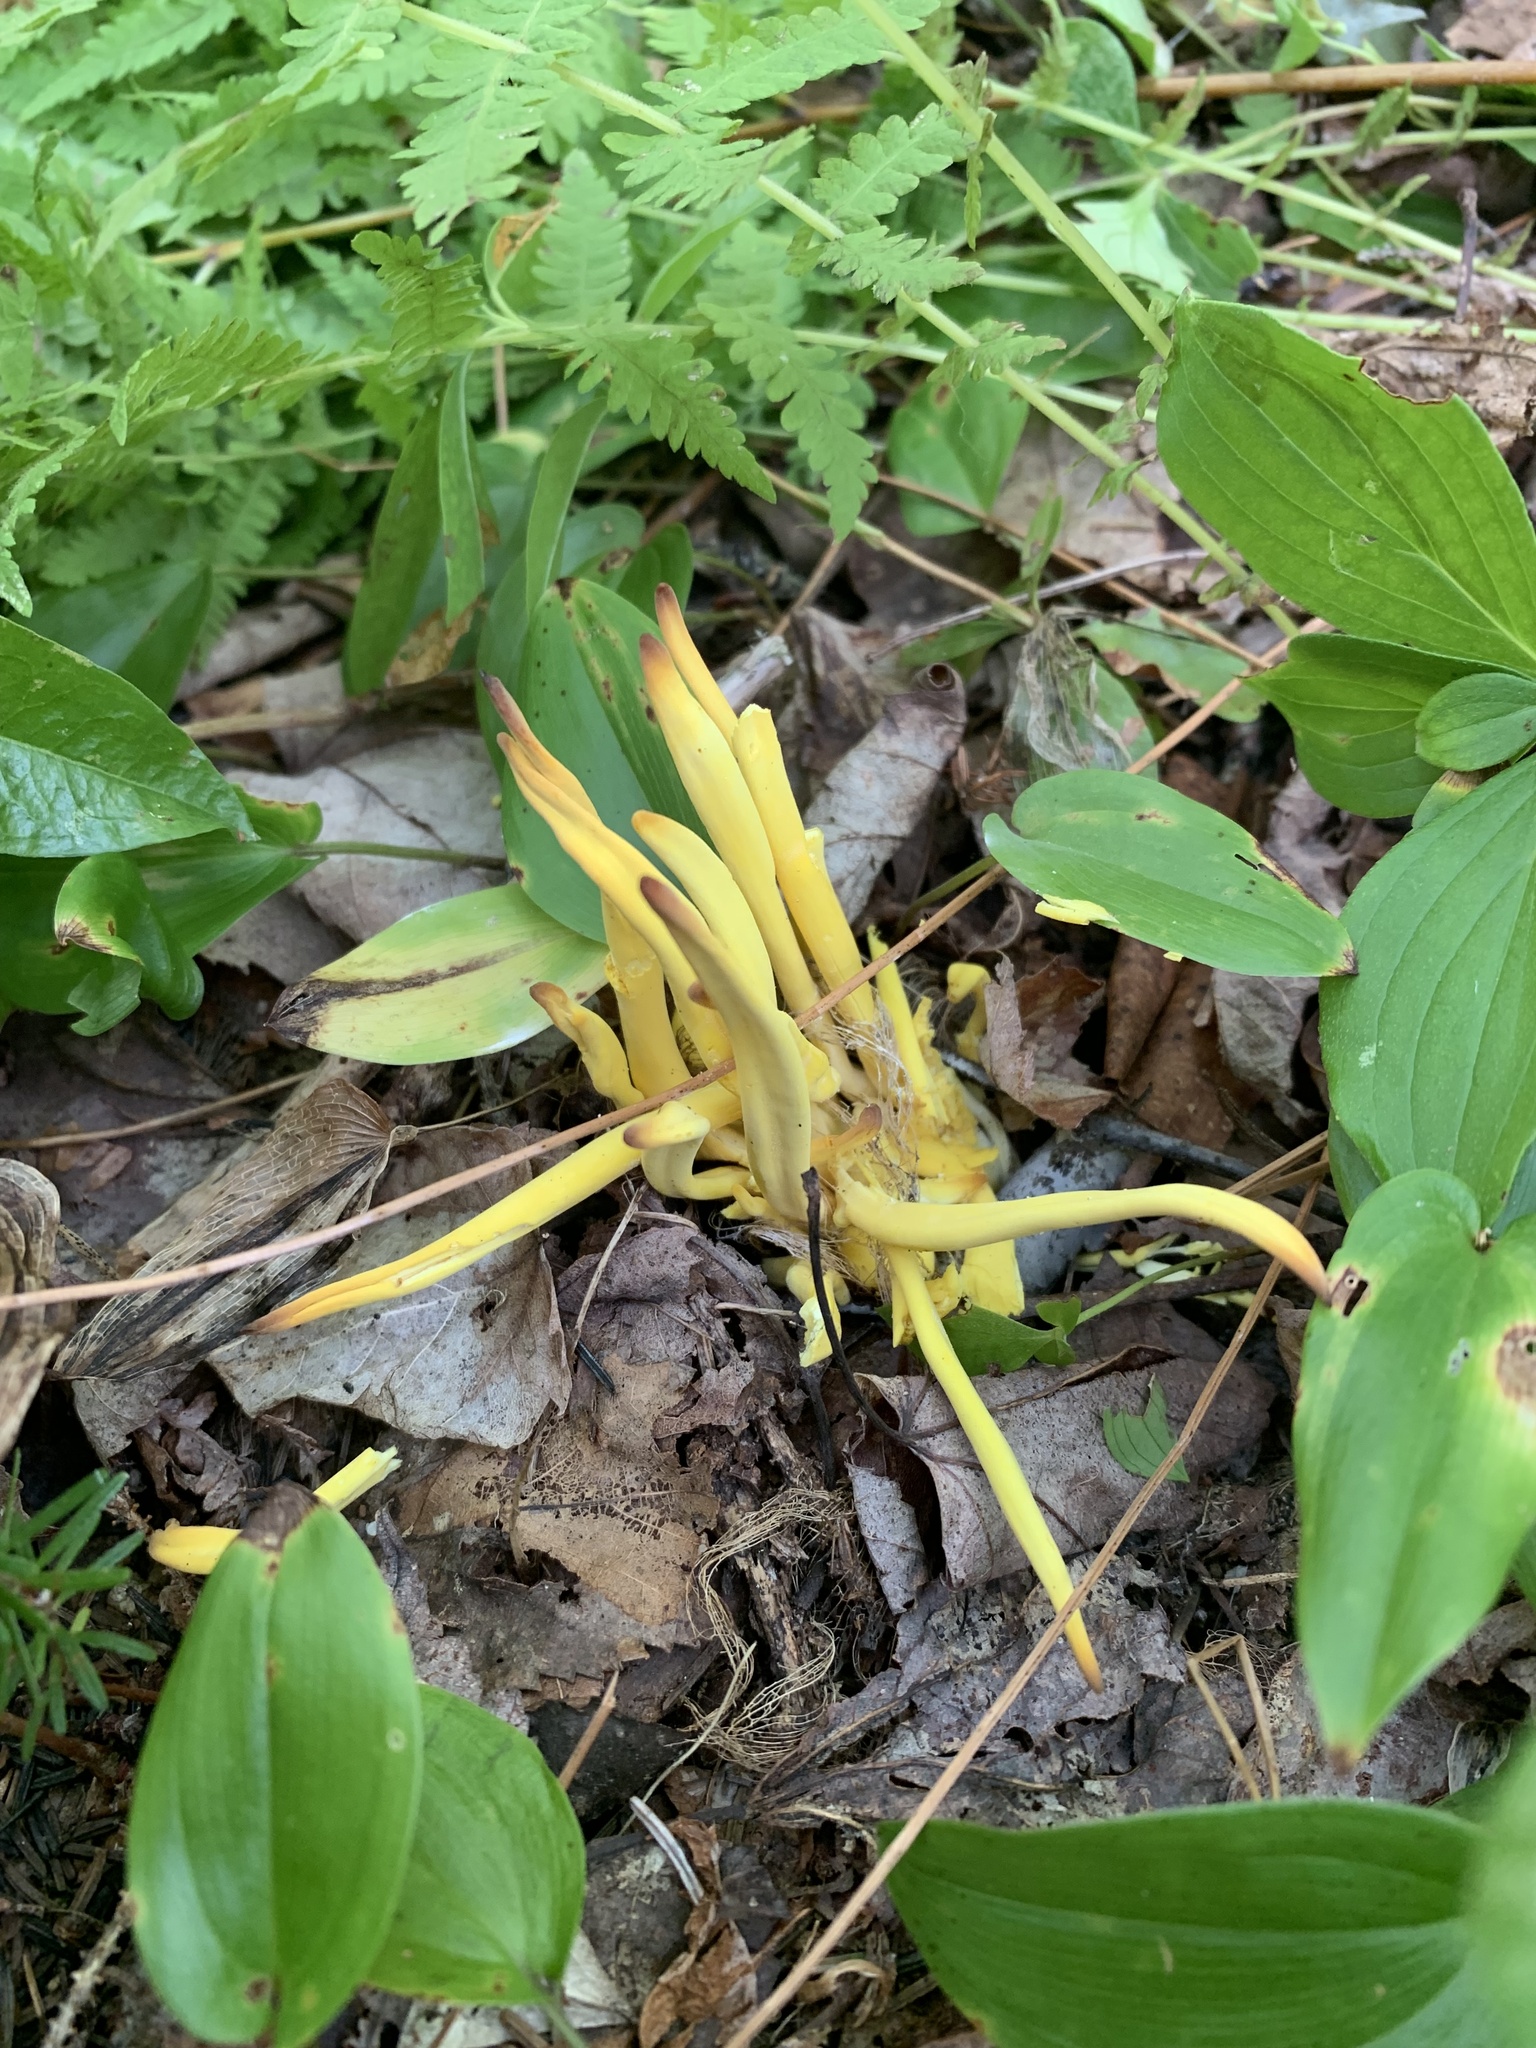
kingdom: Fungi
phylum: Basidiomycota
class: Agaricomycetes
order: Agaricales
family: Clavariaceae
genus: Clavulinopsis
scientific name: Clavulinopsis fusiformis
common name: Golden spindles
